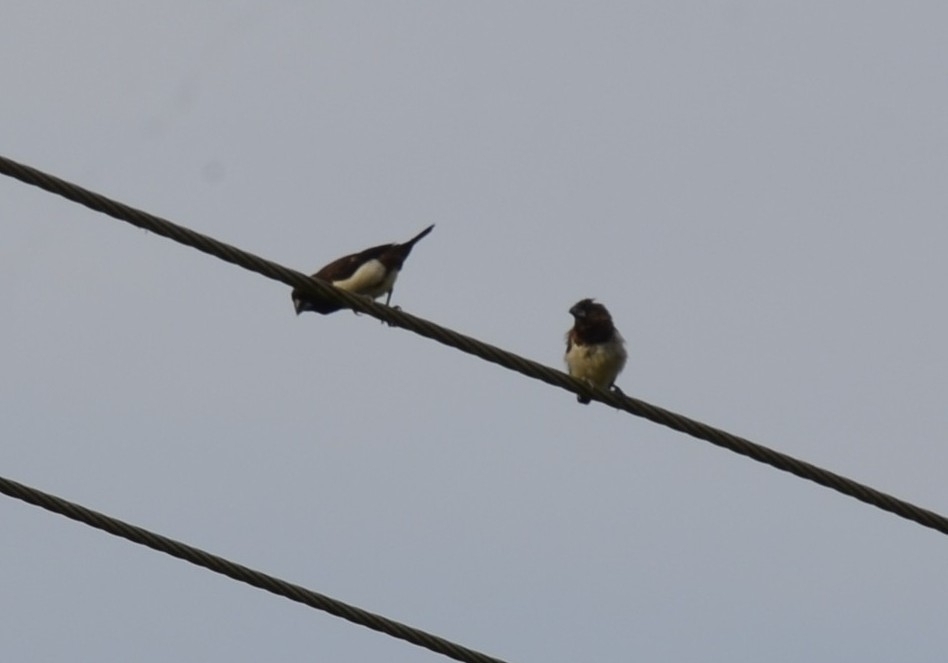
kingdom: Animalia
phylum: Chordata
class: Aves
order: Passeriformes
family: Estrildidae
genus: Lonchura
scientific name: Lonchura striata
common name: White-rumped munia
